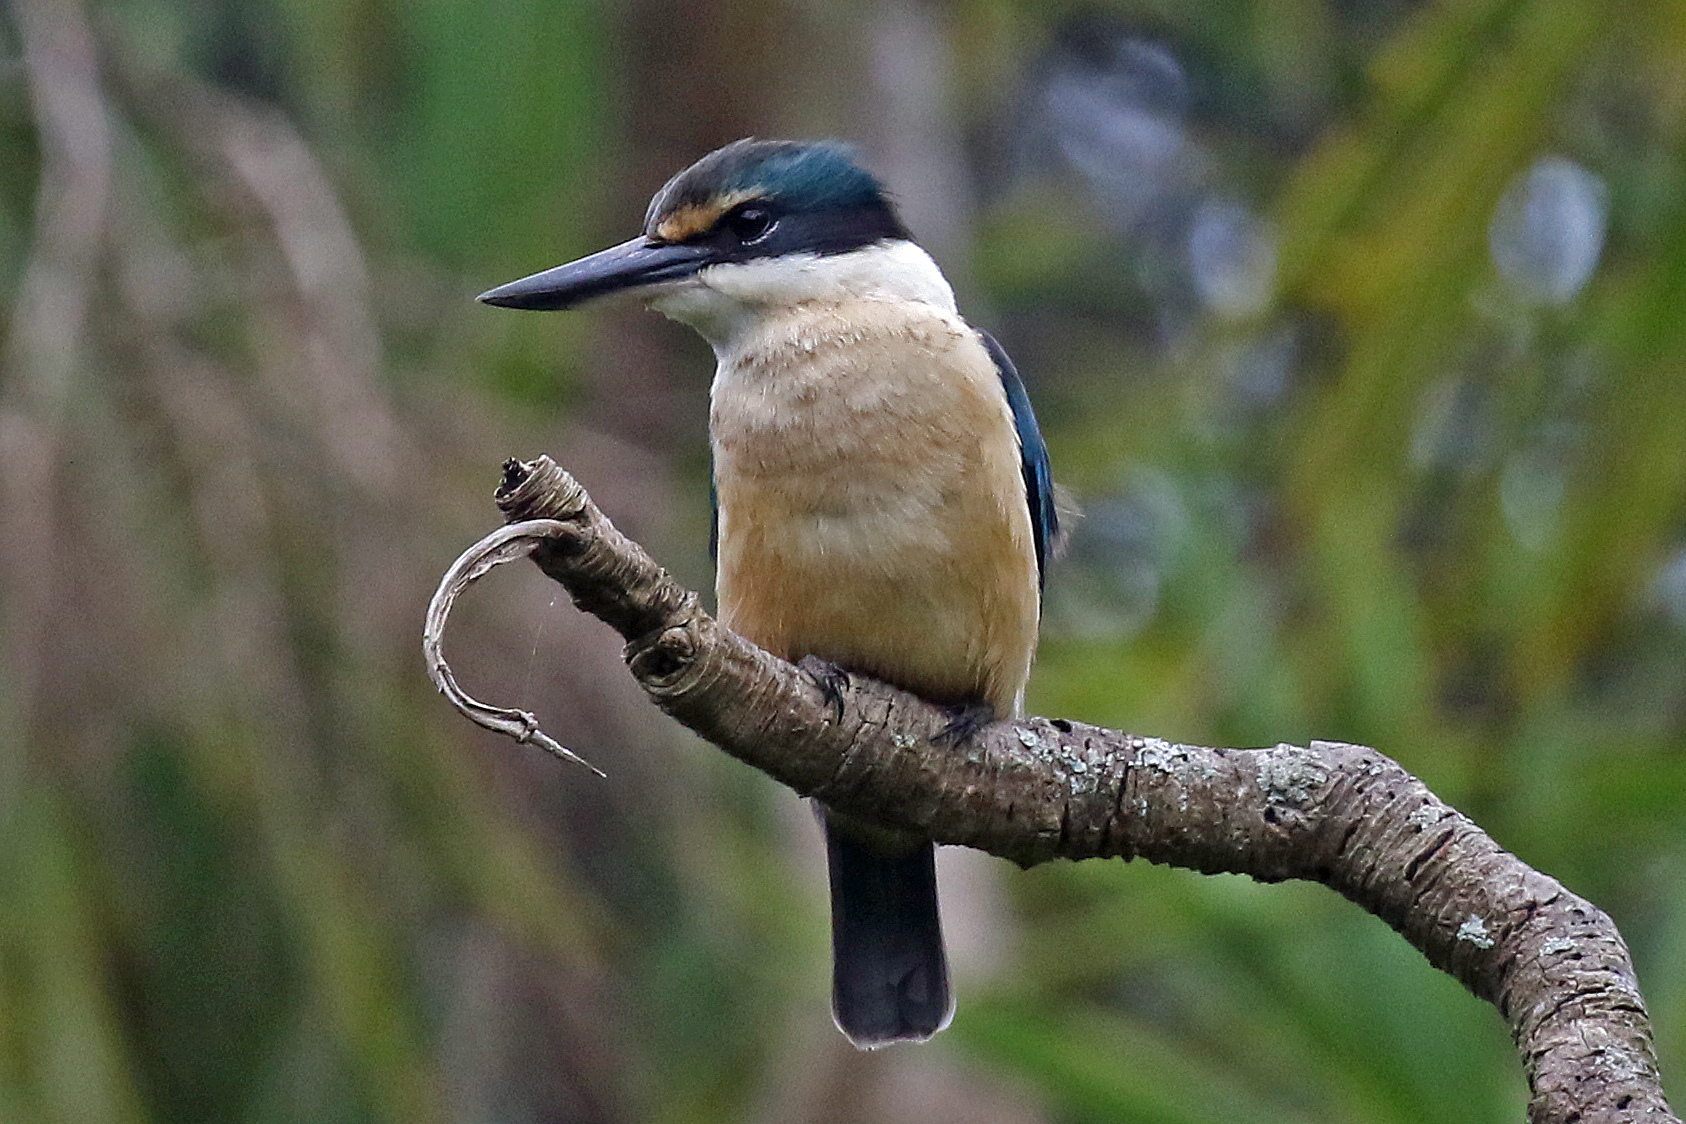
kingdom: Animalia
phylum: Chordata
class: Aves
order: Coraciiformes
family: Alcedinidae
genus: Todiramphus
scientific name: Todiramphus sanctus
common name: Sacred kingfisher
